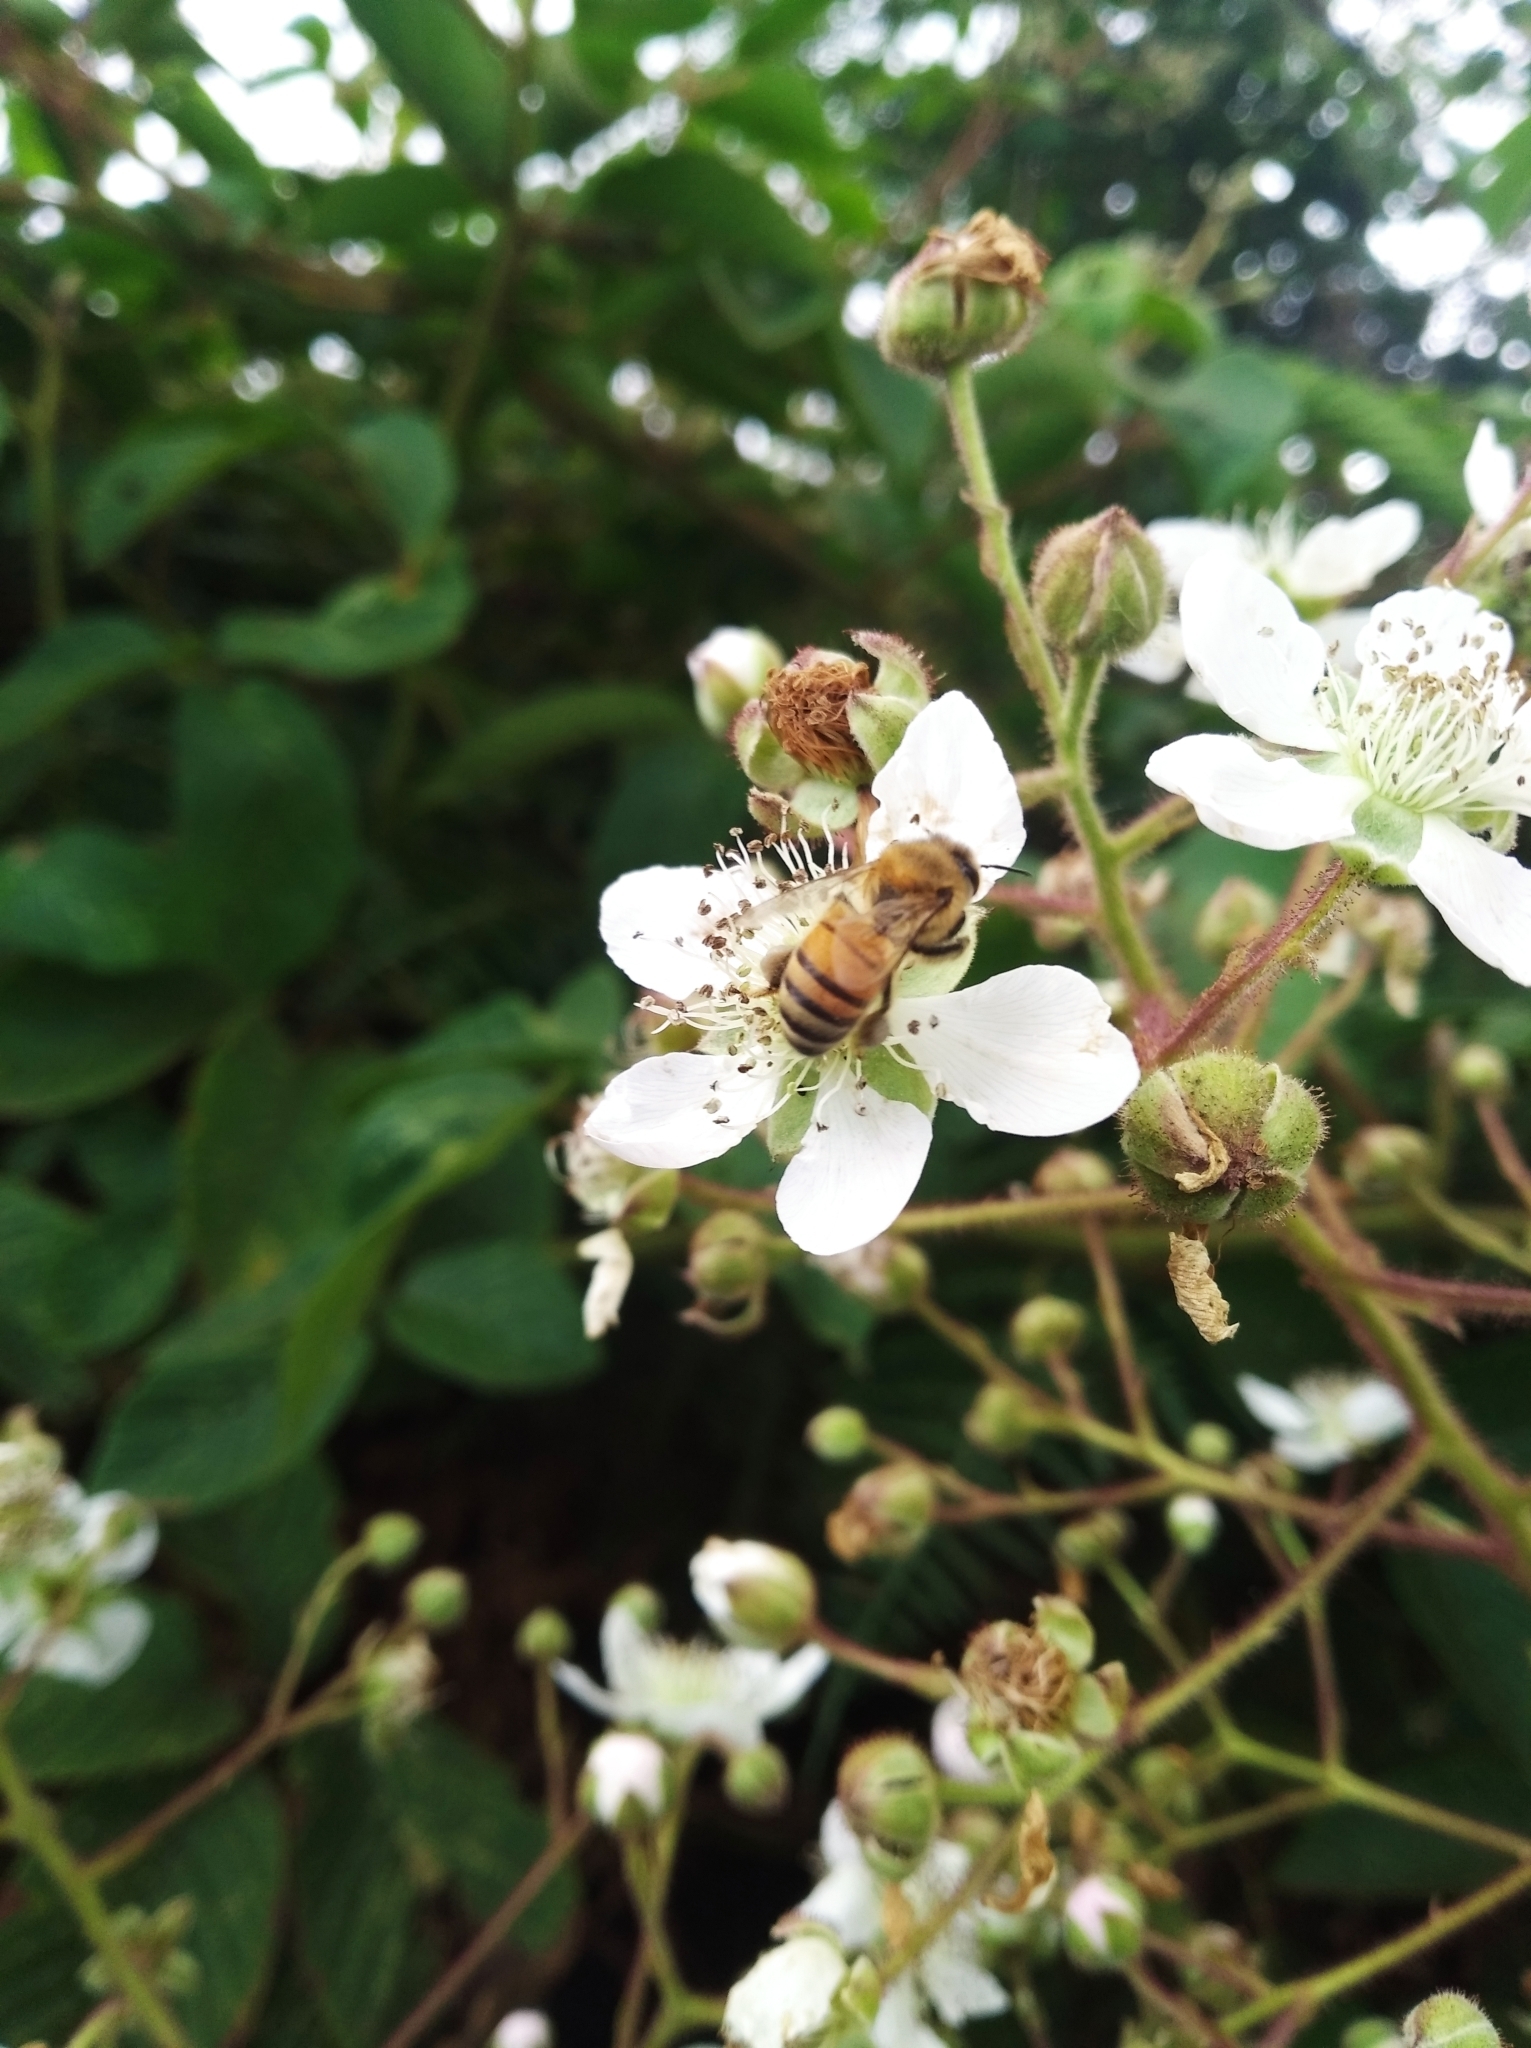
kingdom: Animalia
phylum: Arthropoda
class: Insecta
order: Hymenoptera
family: Apidae
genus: Apis
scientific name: Apis mellifera
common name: Honey bee
